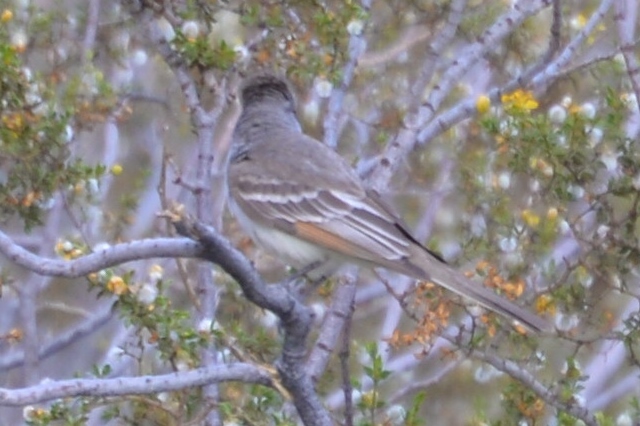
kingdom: Animalia
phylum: Chordata
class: Aves
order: Passeriformes
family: Tyrannidae
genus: Myiarchus
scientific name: Myiarchus cinerascens
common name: Ash-throated flycatcher
